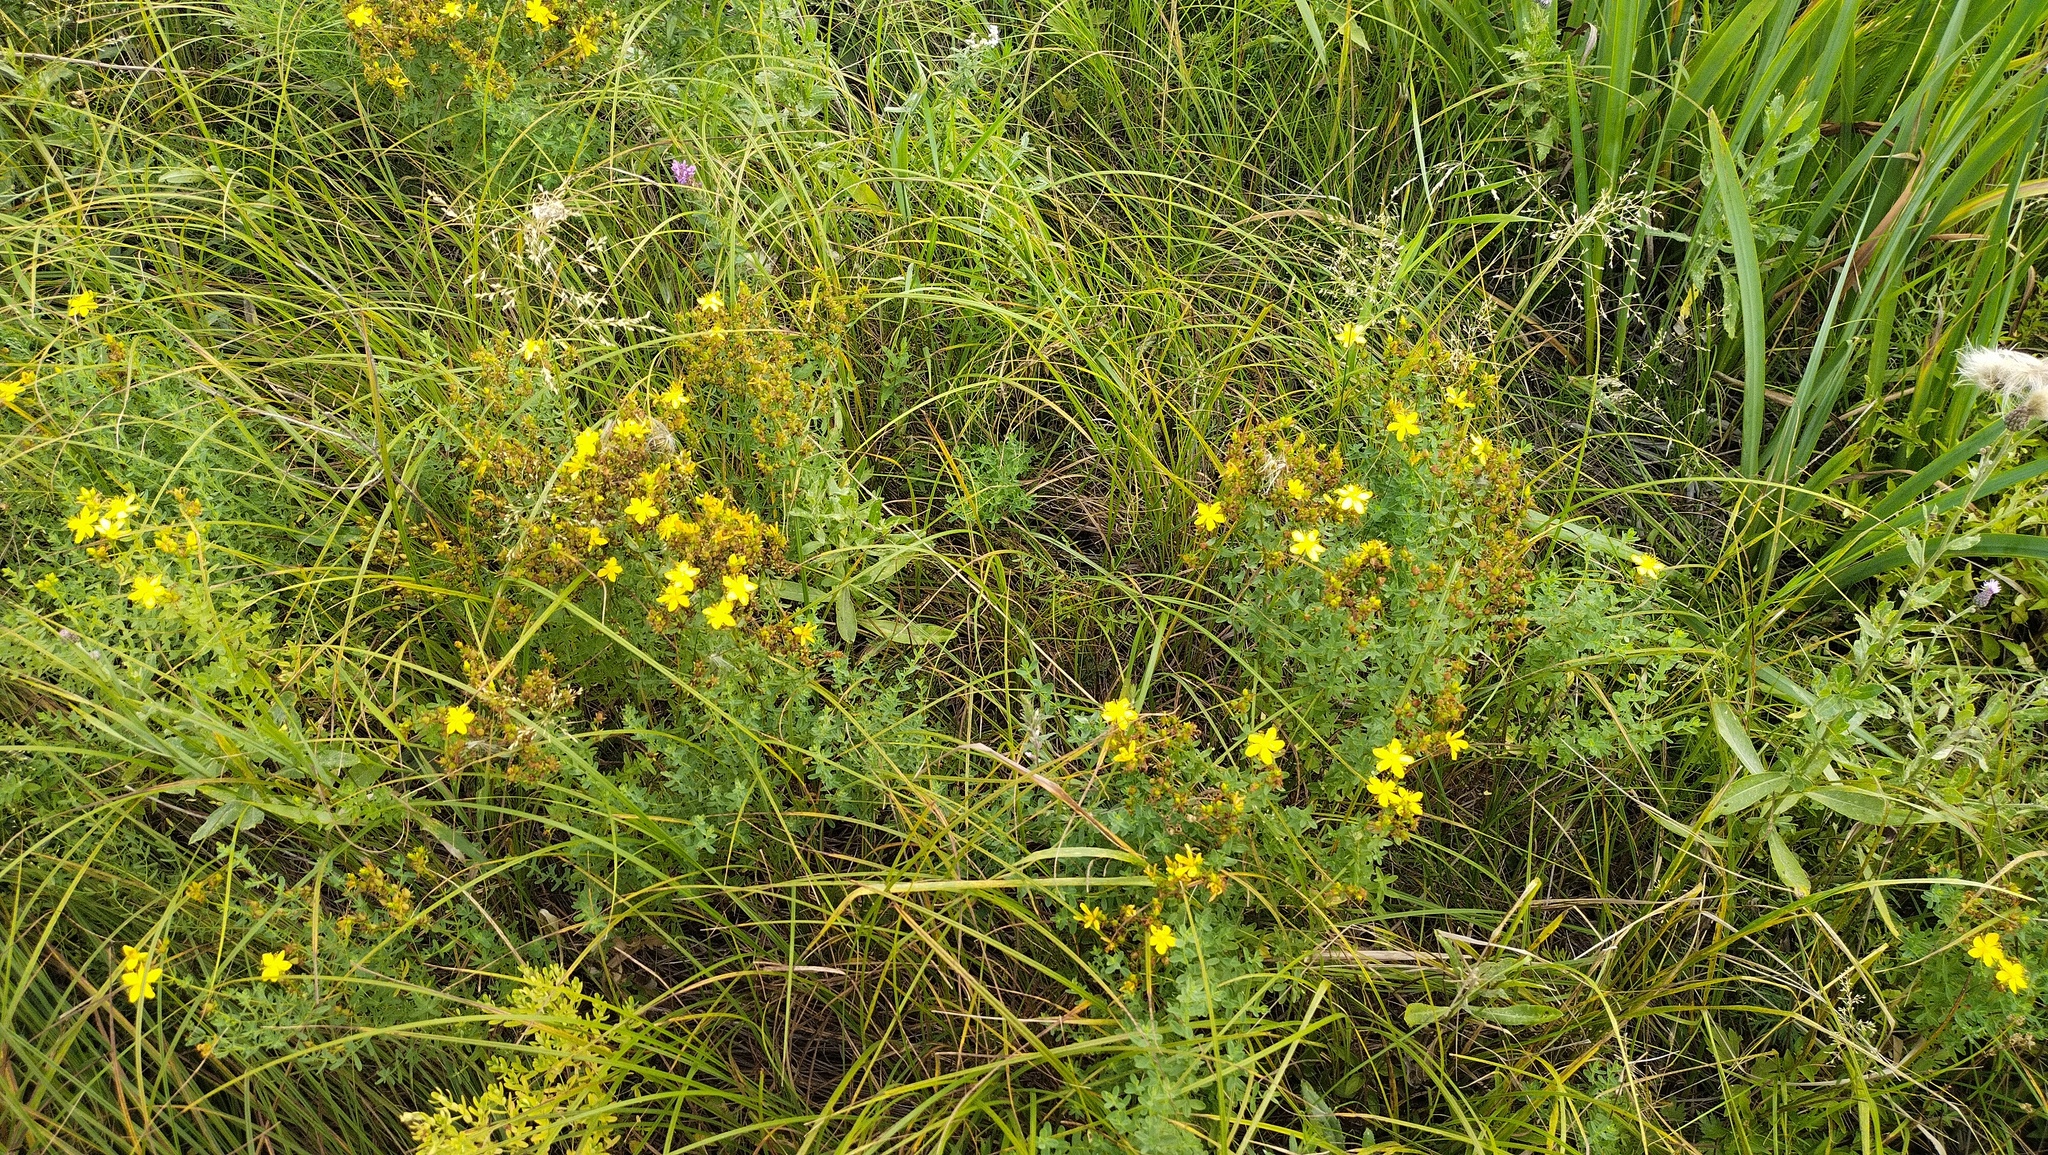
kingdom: Plantae
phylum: Tracheophyta
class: Magnoliopsida
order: Malpighiales
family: Hypericaceae
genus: Hypericum
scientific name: Hypericum perforatum
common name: Common st. johnswort
